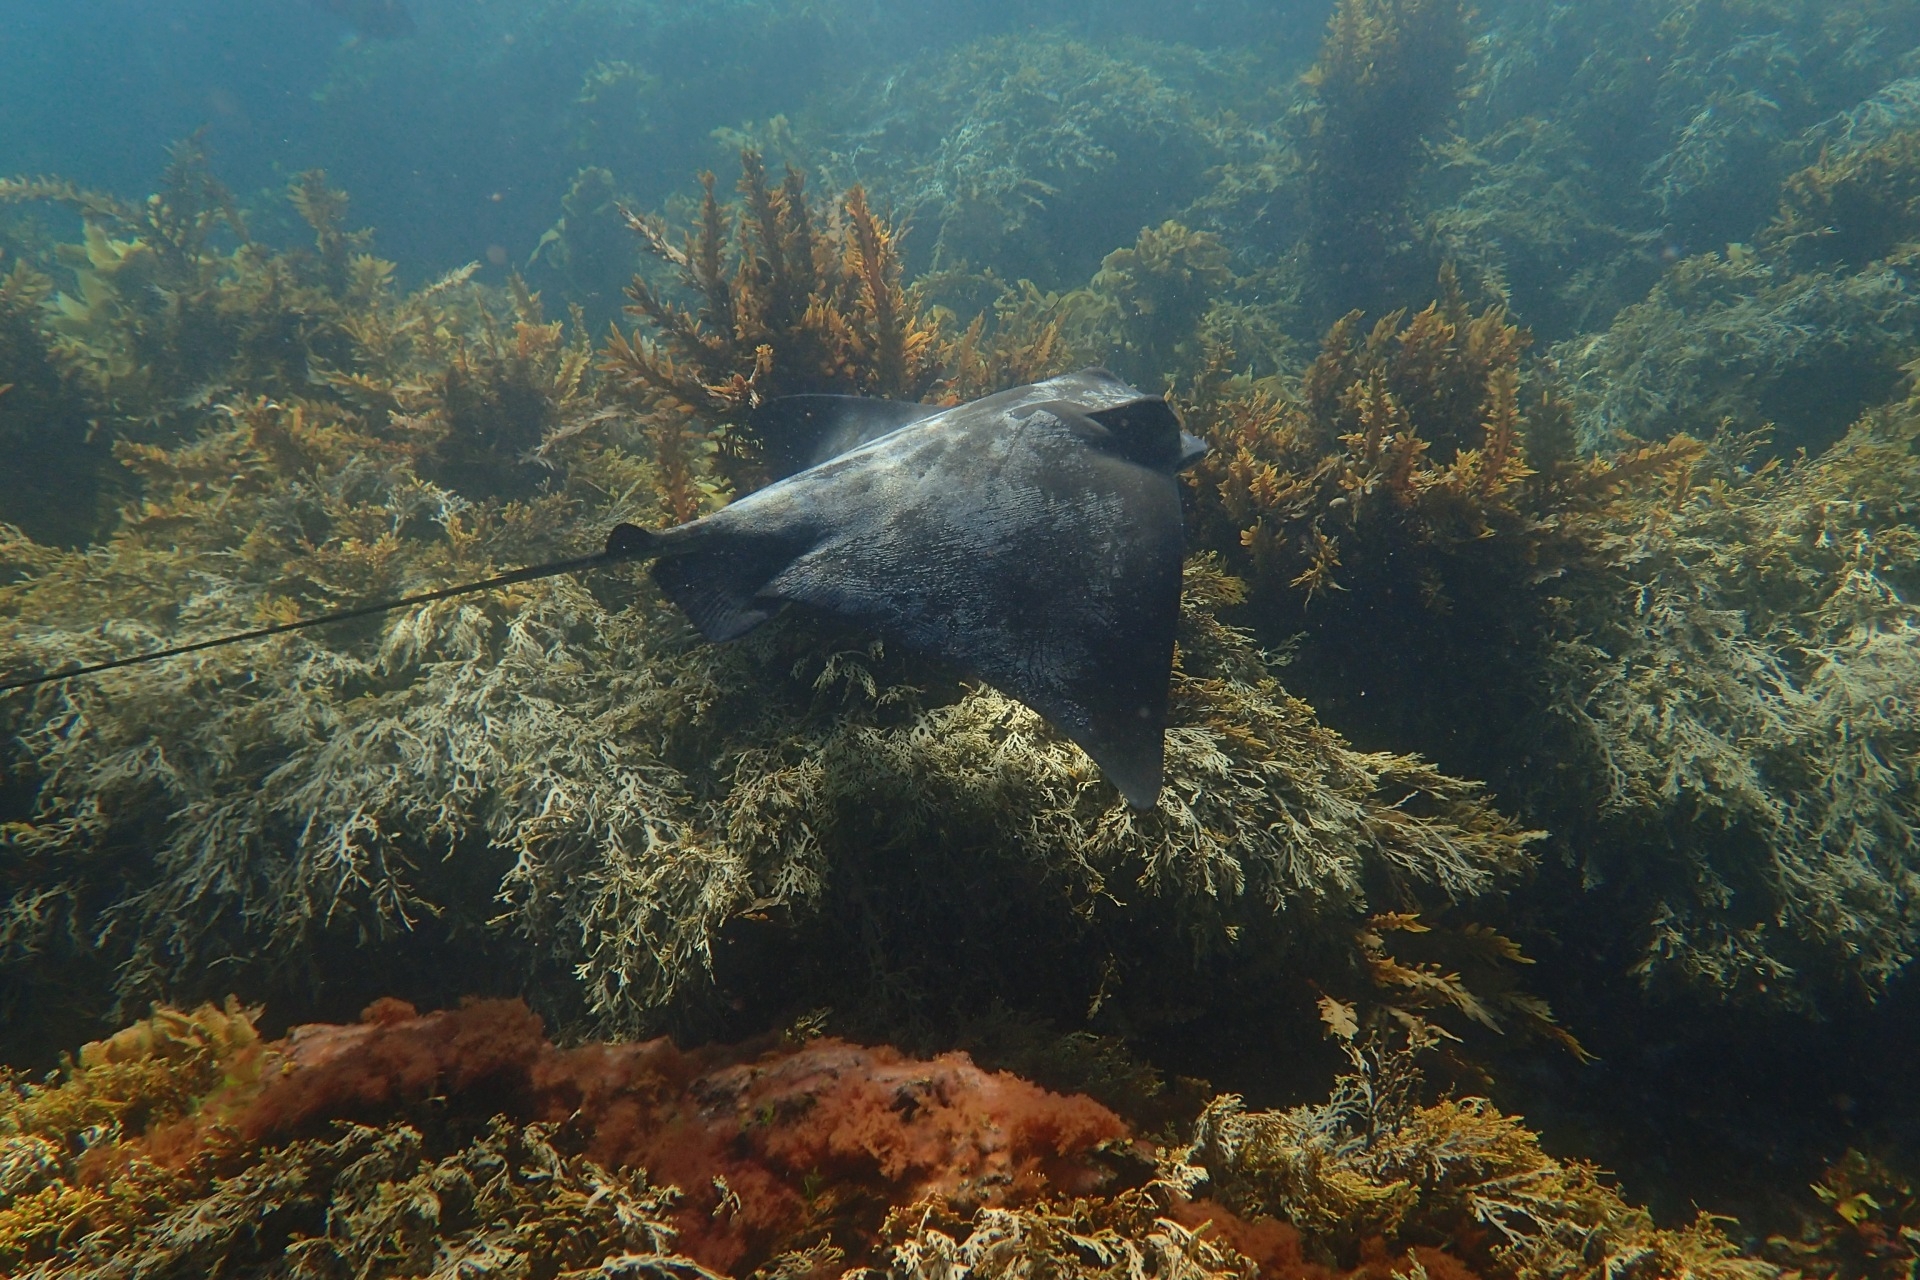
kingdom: Animalia
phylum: Chordata
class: Elasmobranchii
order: Myliobatiformes
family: Myliobatidae
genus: Myliobatis
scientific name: Myliobatis tenuicaudatus
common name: Eagle ray
